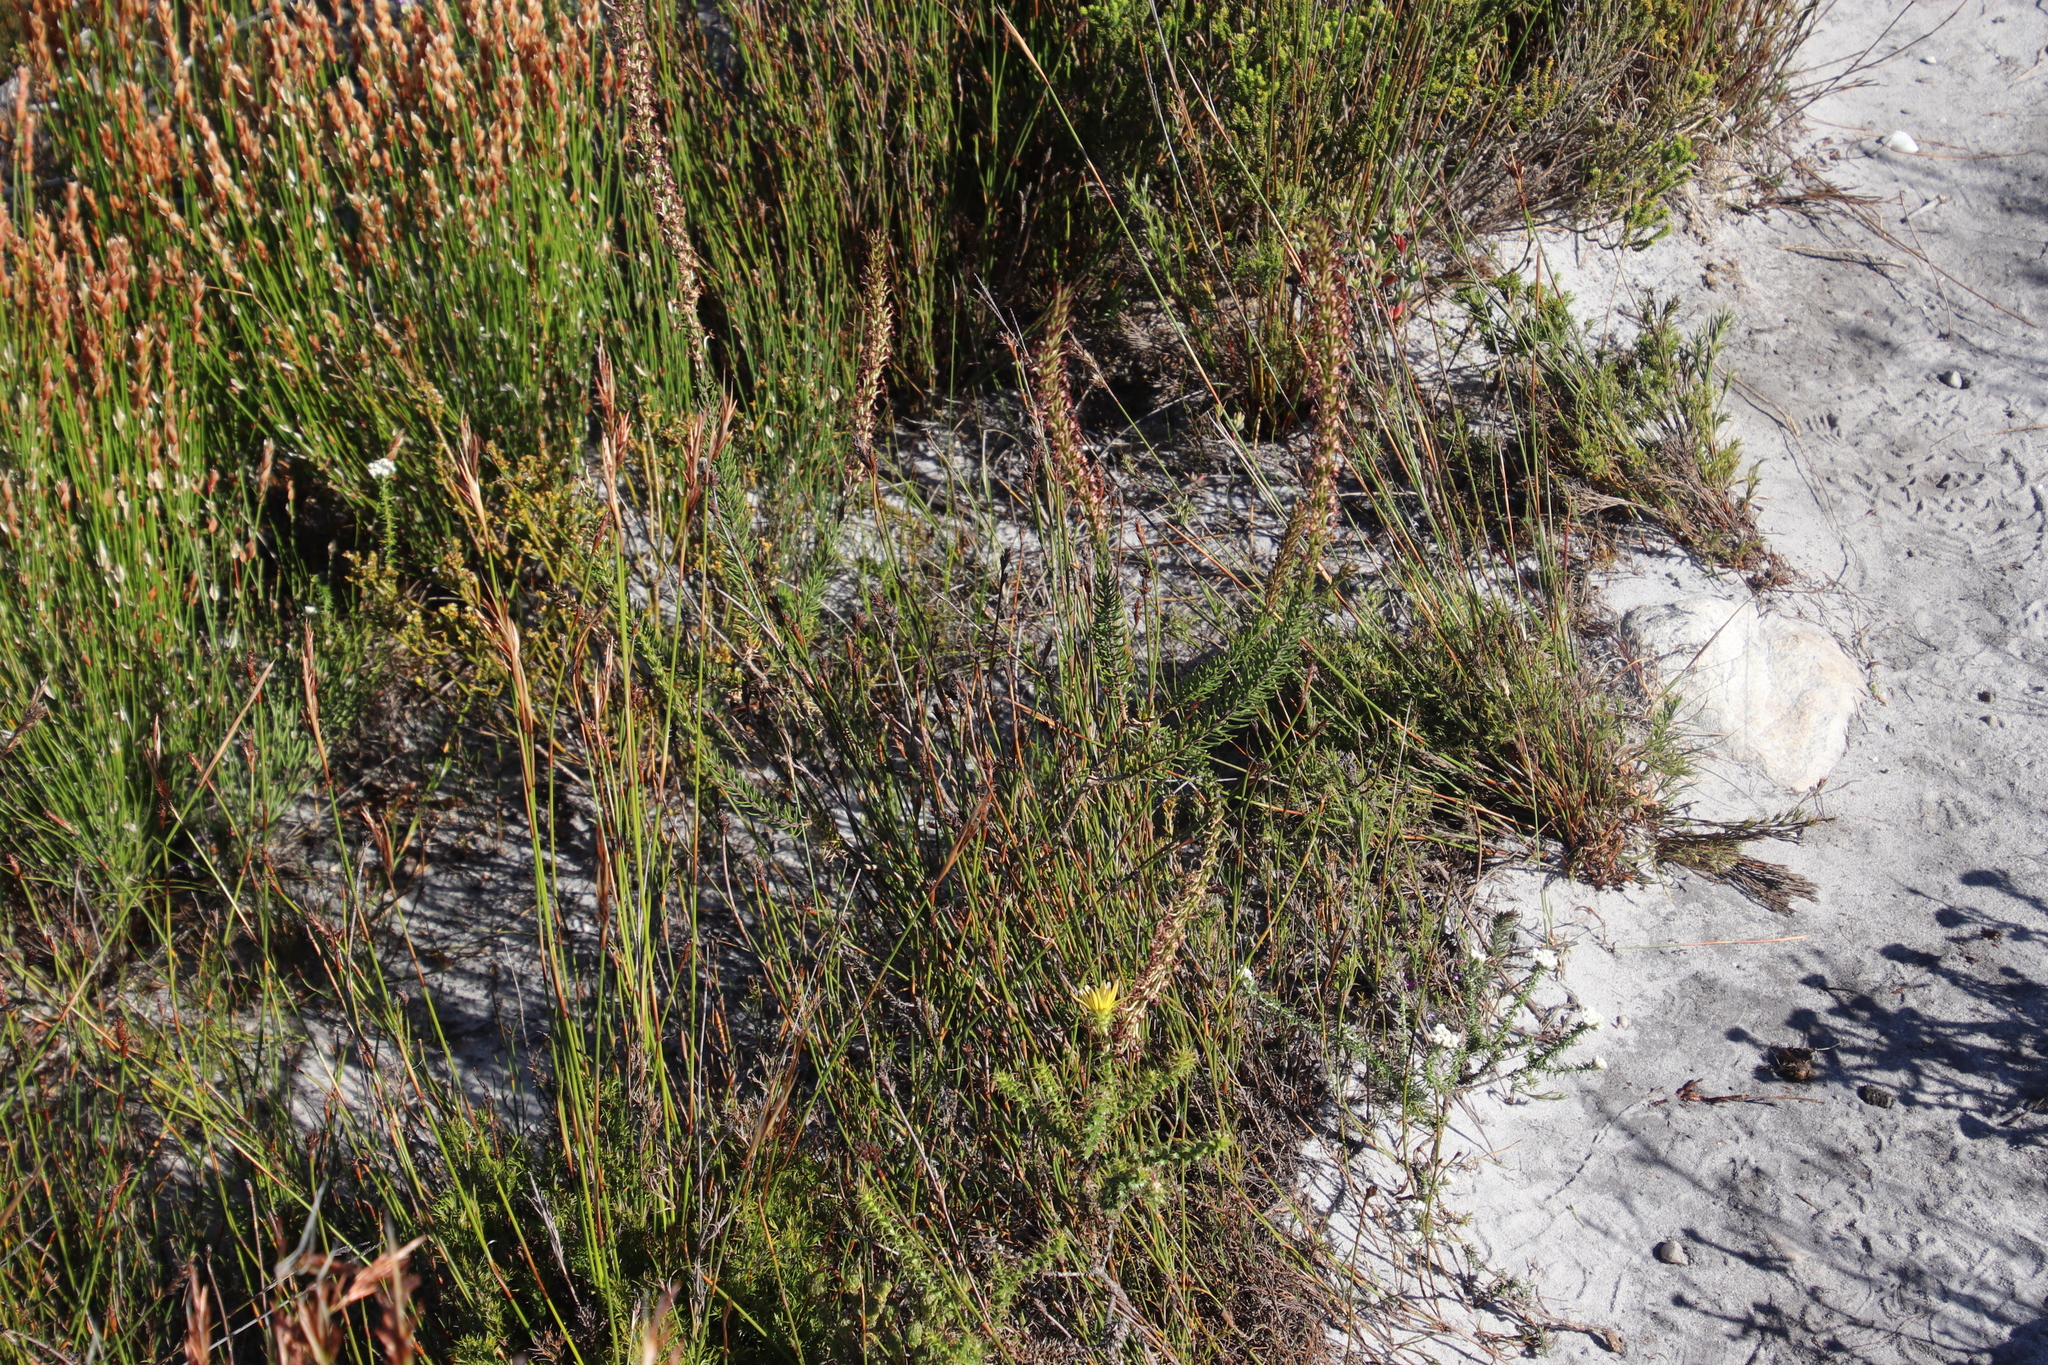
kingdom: Plantae
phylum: Tracheophyta
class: Magnoliopsida
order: Lamiales
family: Scrophulariaceae
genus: Microdon
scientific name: Microdon dubius
